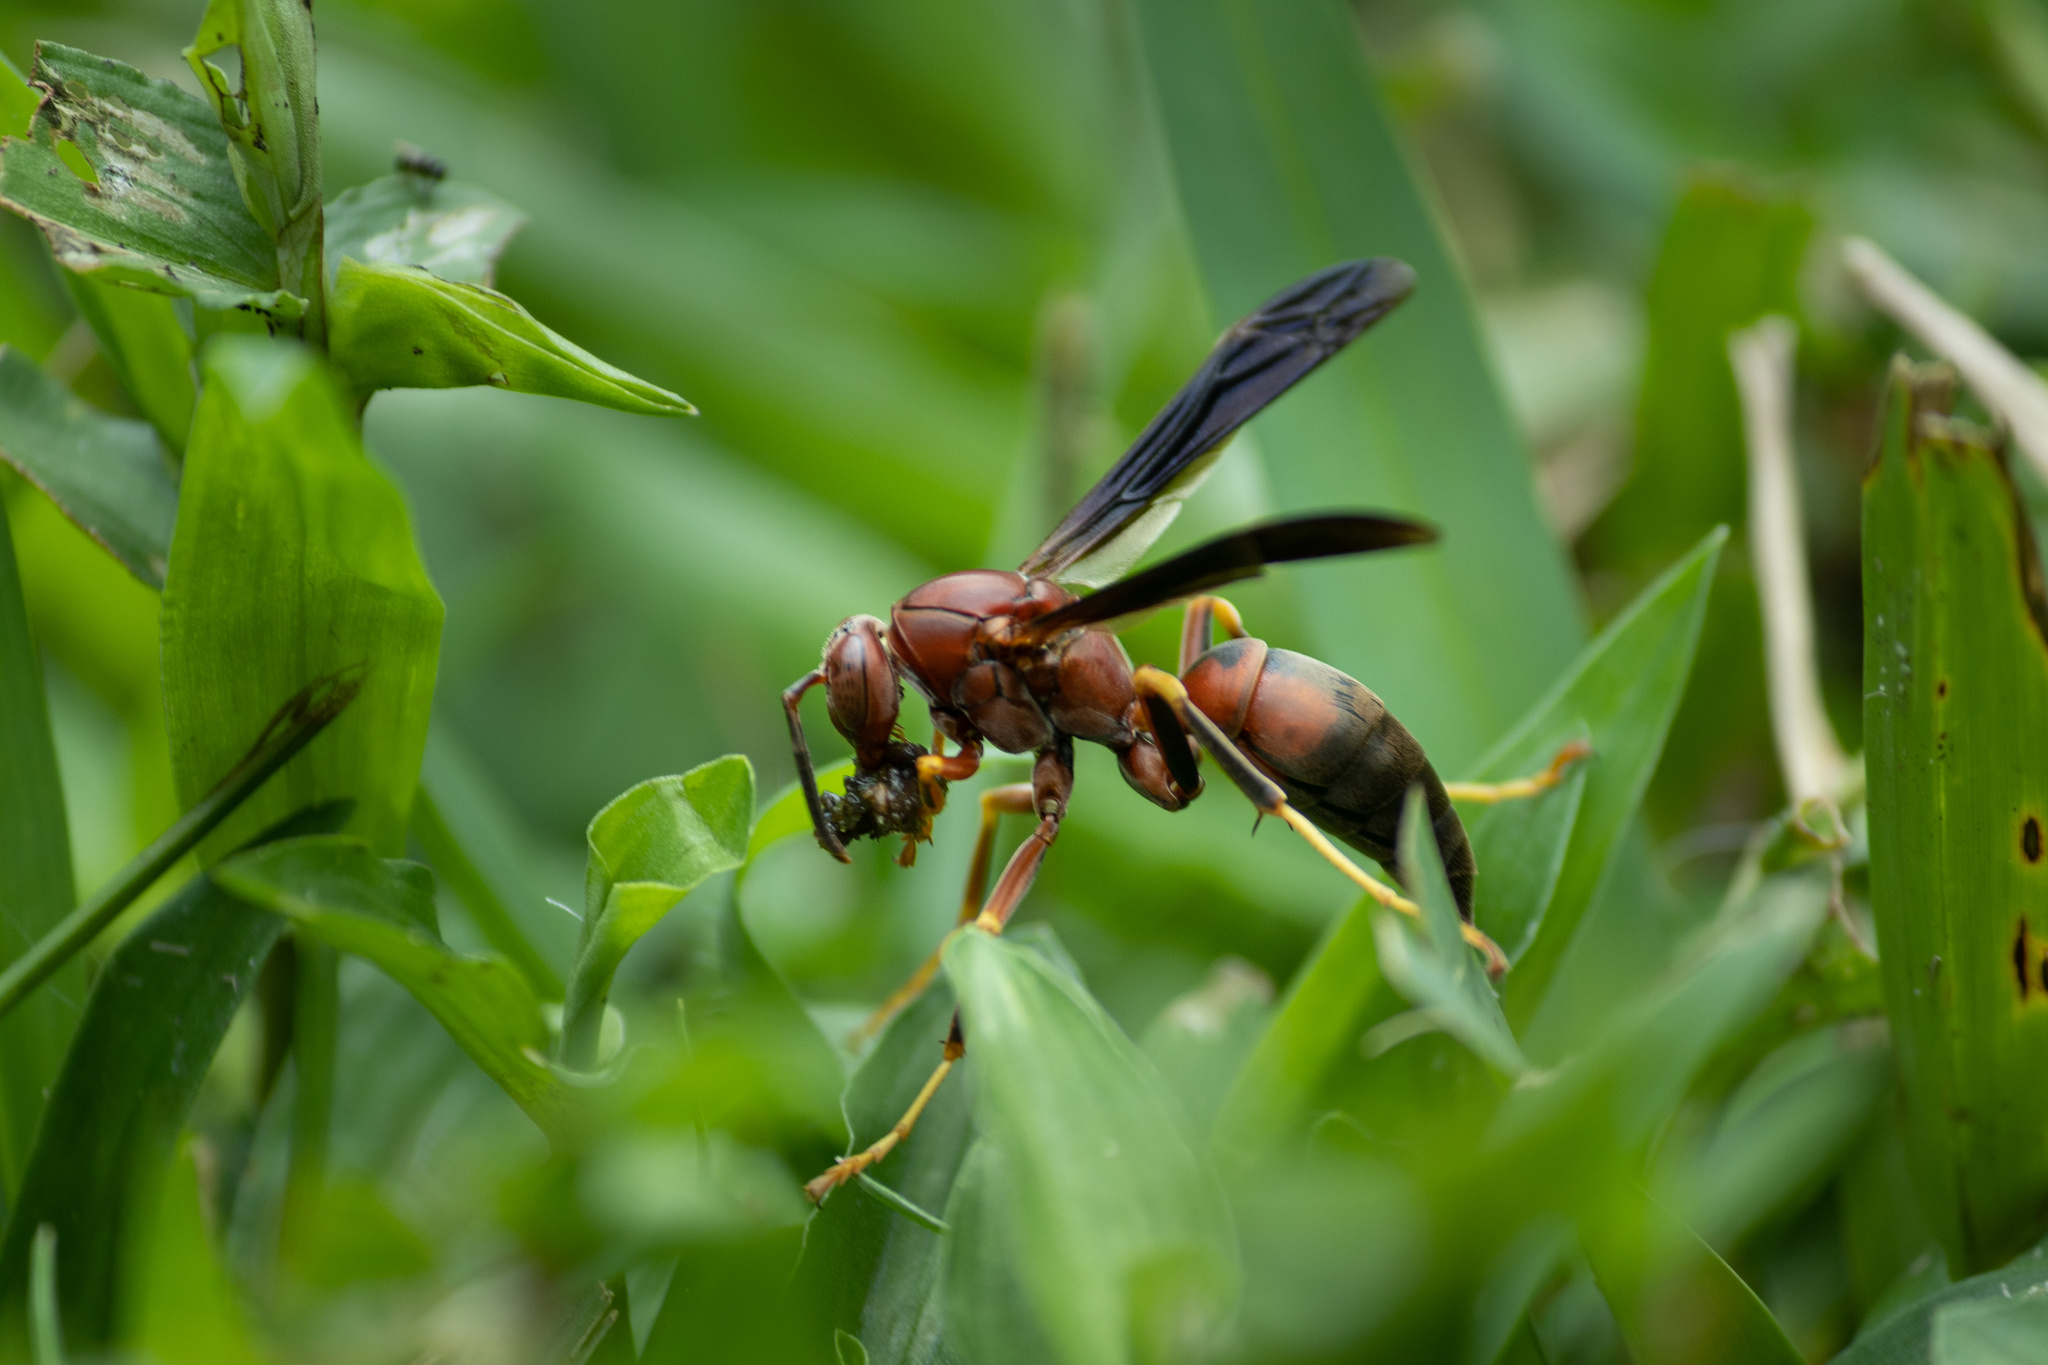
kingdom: Animalia
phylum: Arthropoda
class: Insecta
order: Hymenoptera
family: Eumenidae
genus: Polistes
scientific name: Polistes metricus
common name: Metric paper wasp
